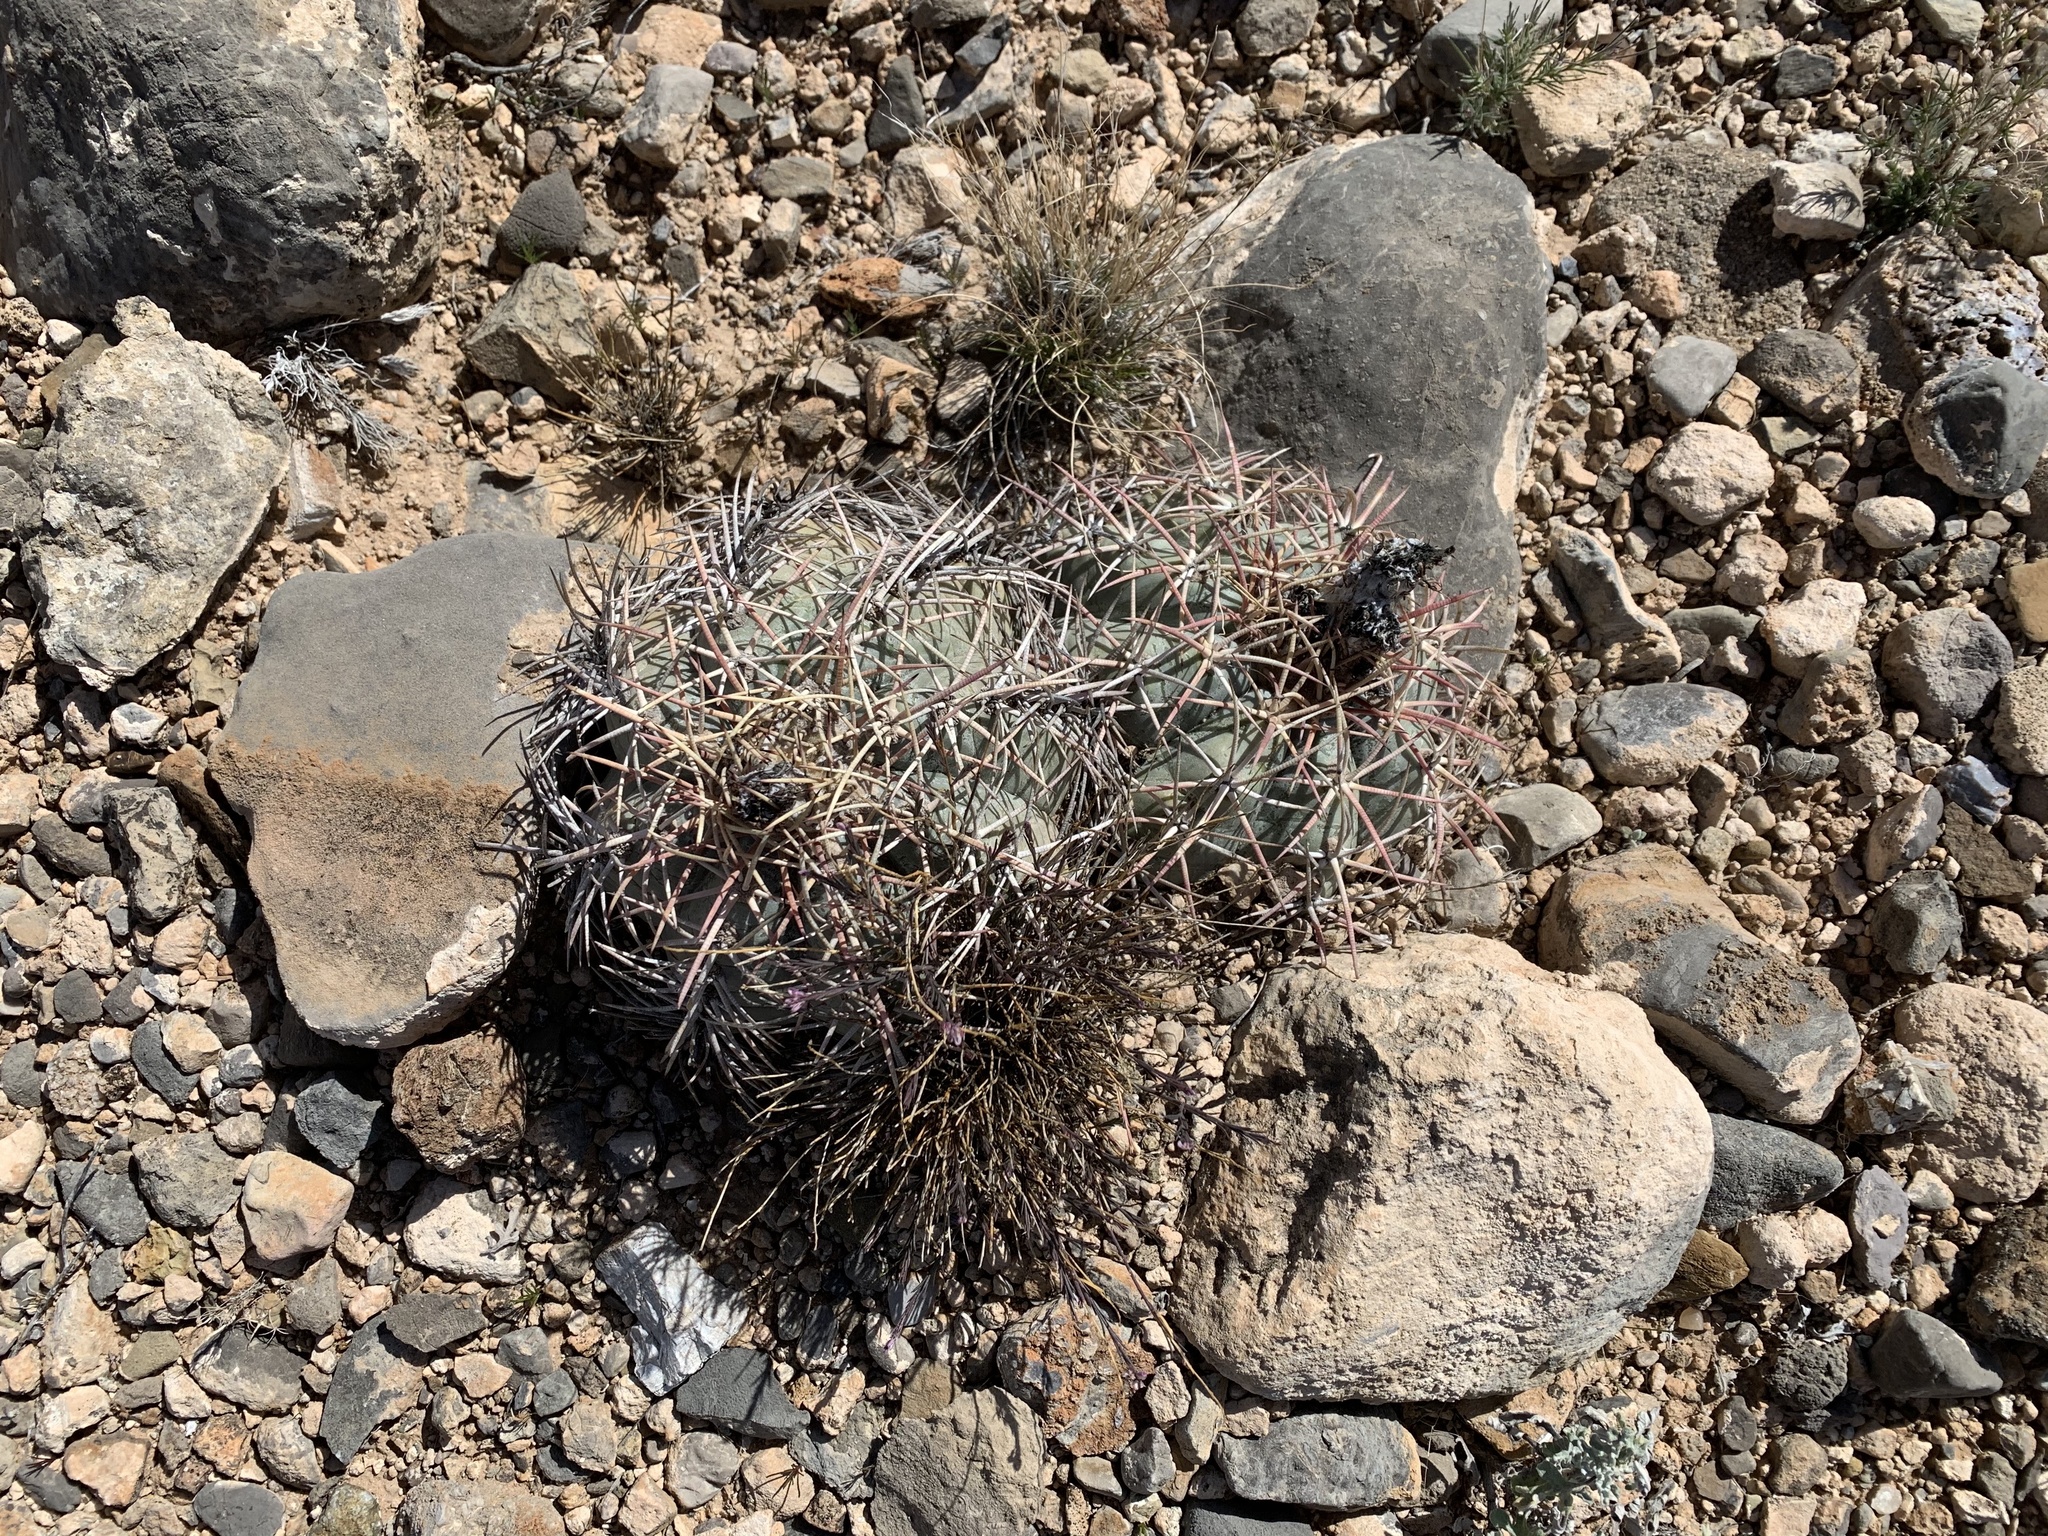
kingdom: Plantae
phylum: Tracheophyta
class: Magnoliopsida
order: Caryophyllales
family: Cactaceae
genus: Echinocactus
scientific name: Echinocactus horizonthalonius
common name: Devilshead
